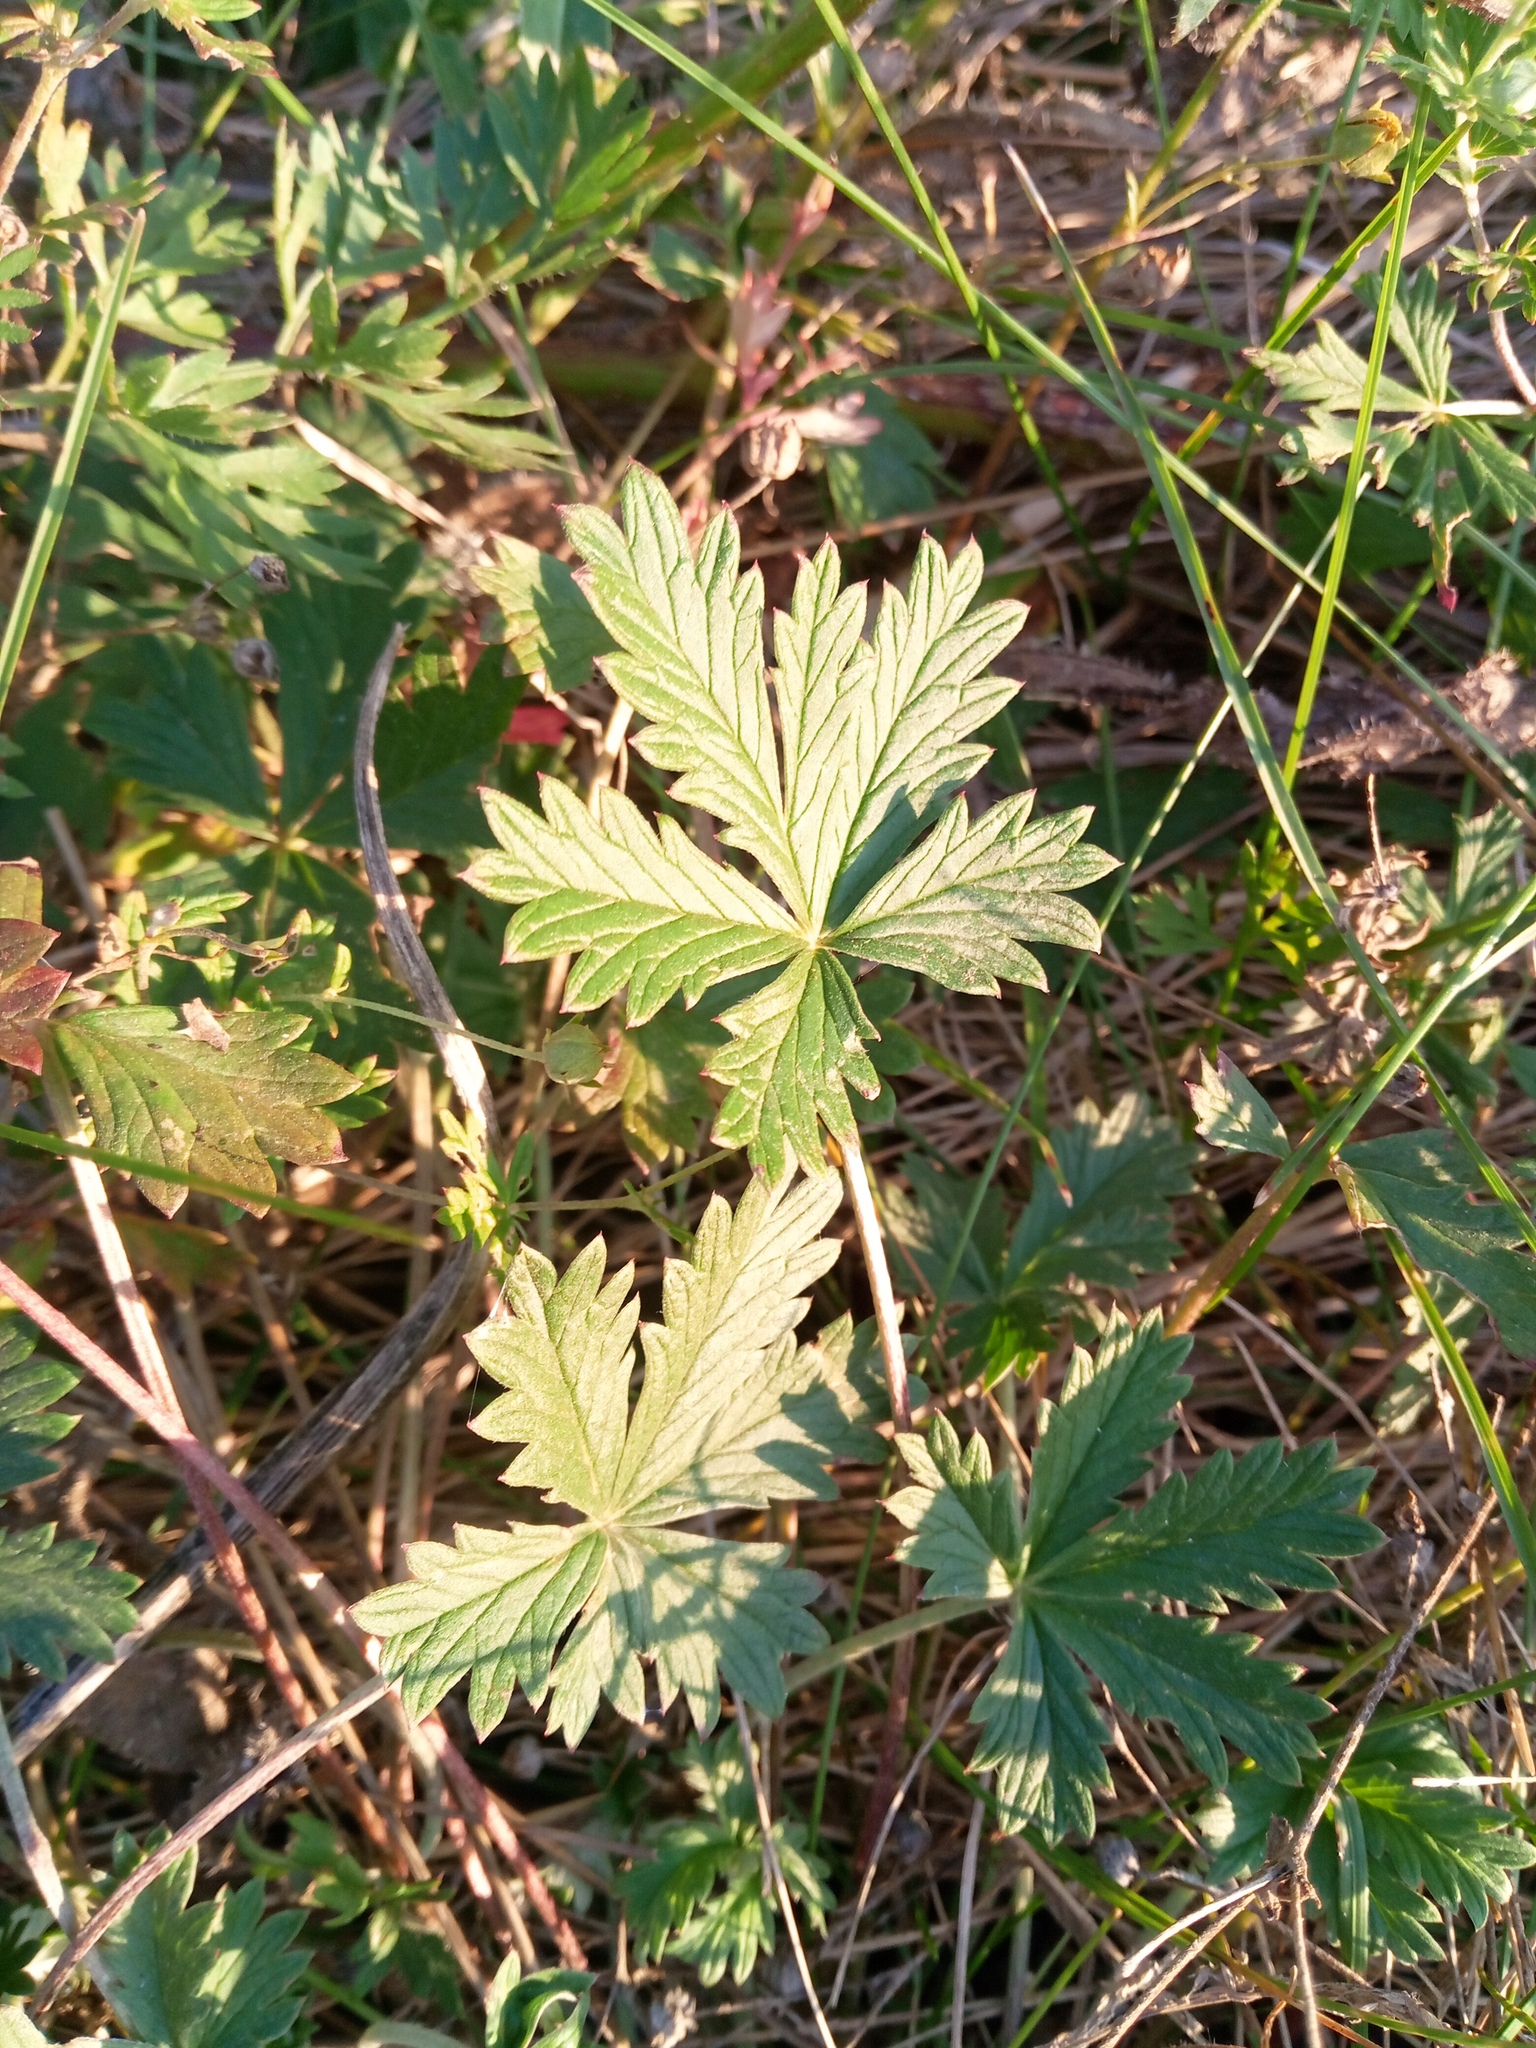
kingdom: Plantae
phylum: Tracheophyta
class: Magnoliopsida
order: Rosales
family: Rosaceae
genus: Potentilla
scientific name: Potentilla argentea
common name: Hoary cinquefoil
